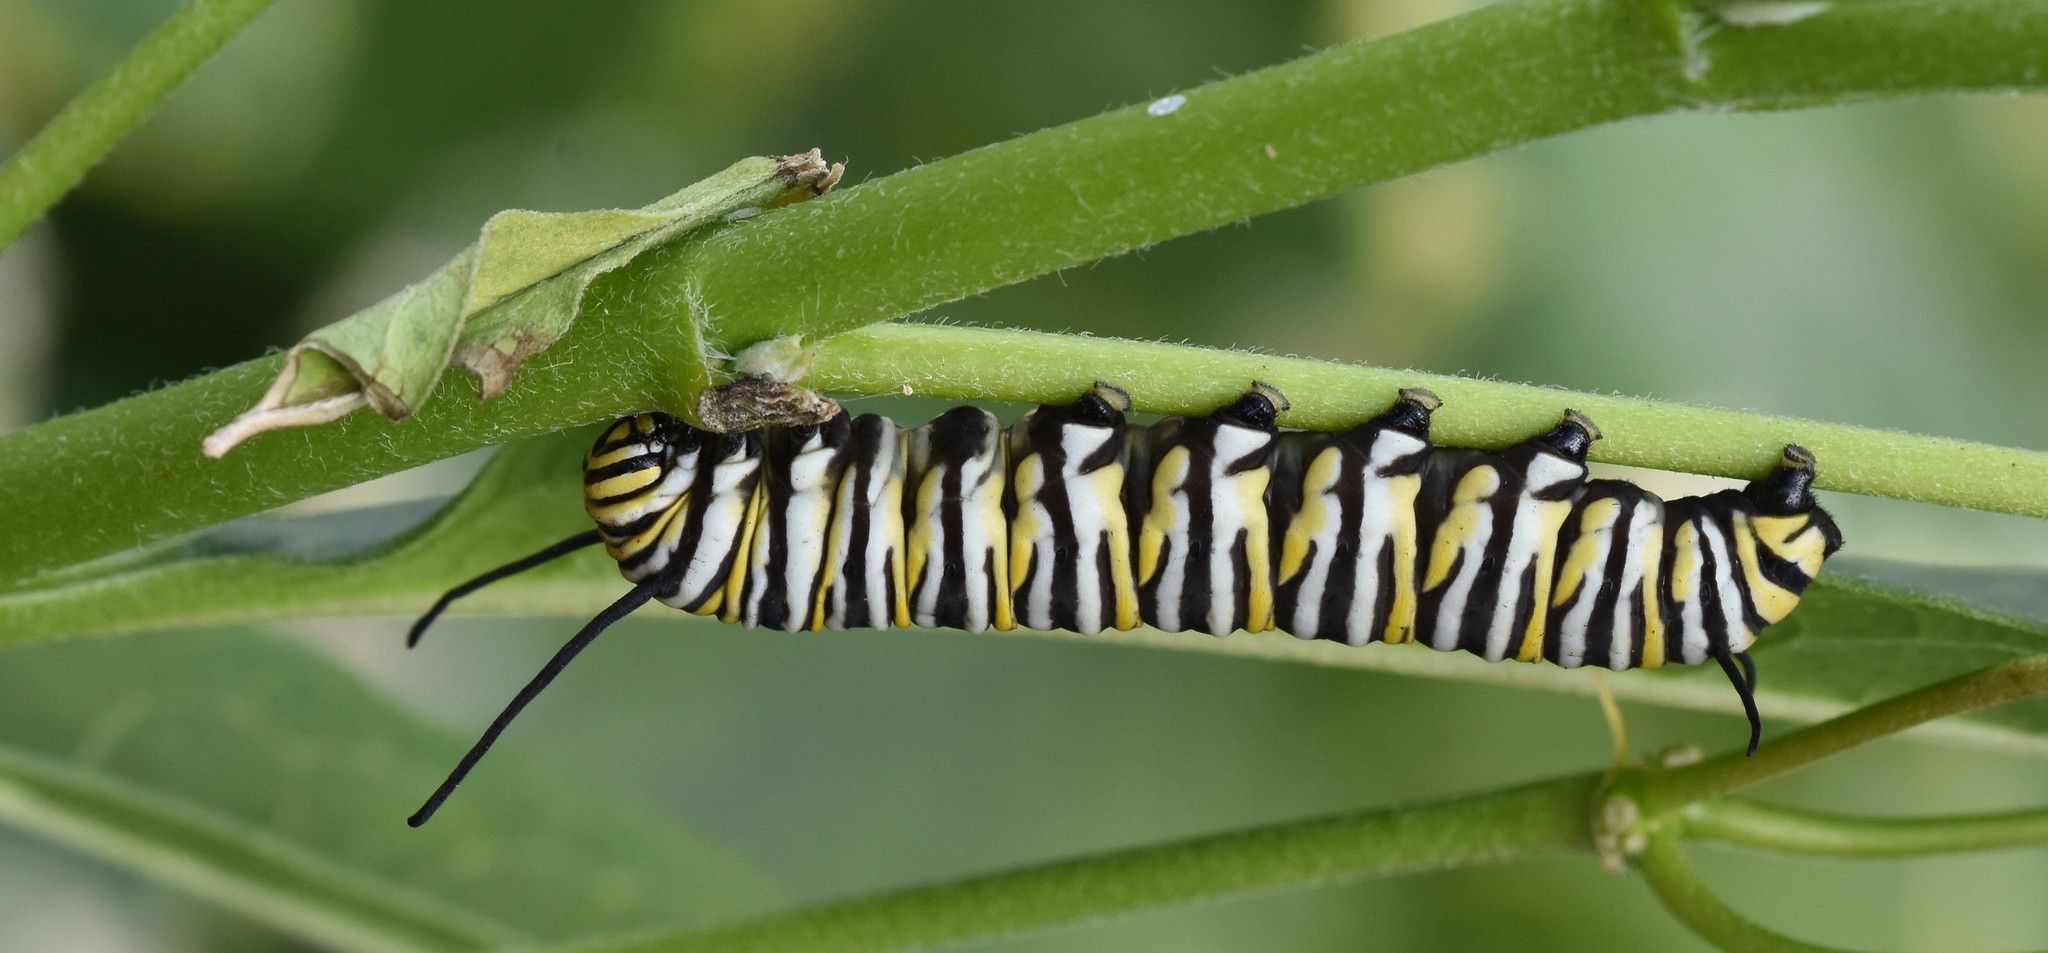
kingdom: Animalia
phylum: Arthropoda
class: Insecta
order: Lepidoptera
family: Nymphalidae
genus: Danaus
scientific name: Danaus plexippus
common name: Monarch
